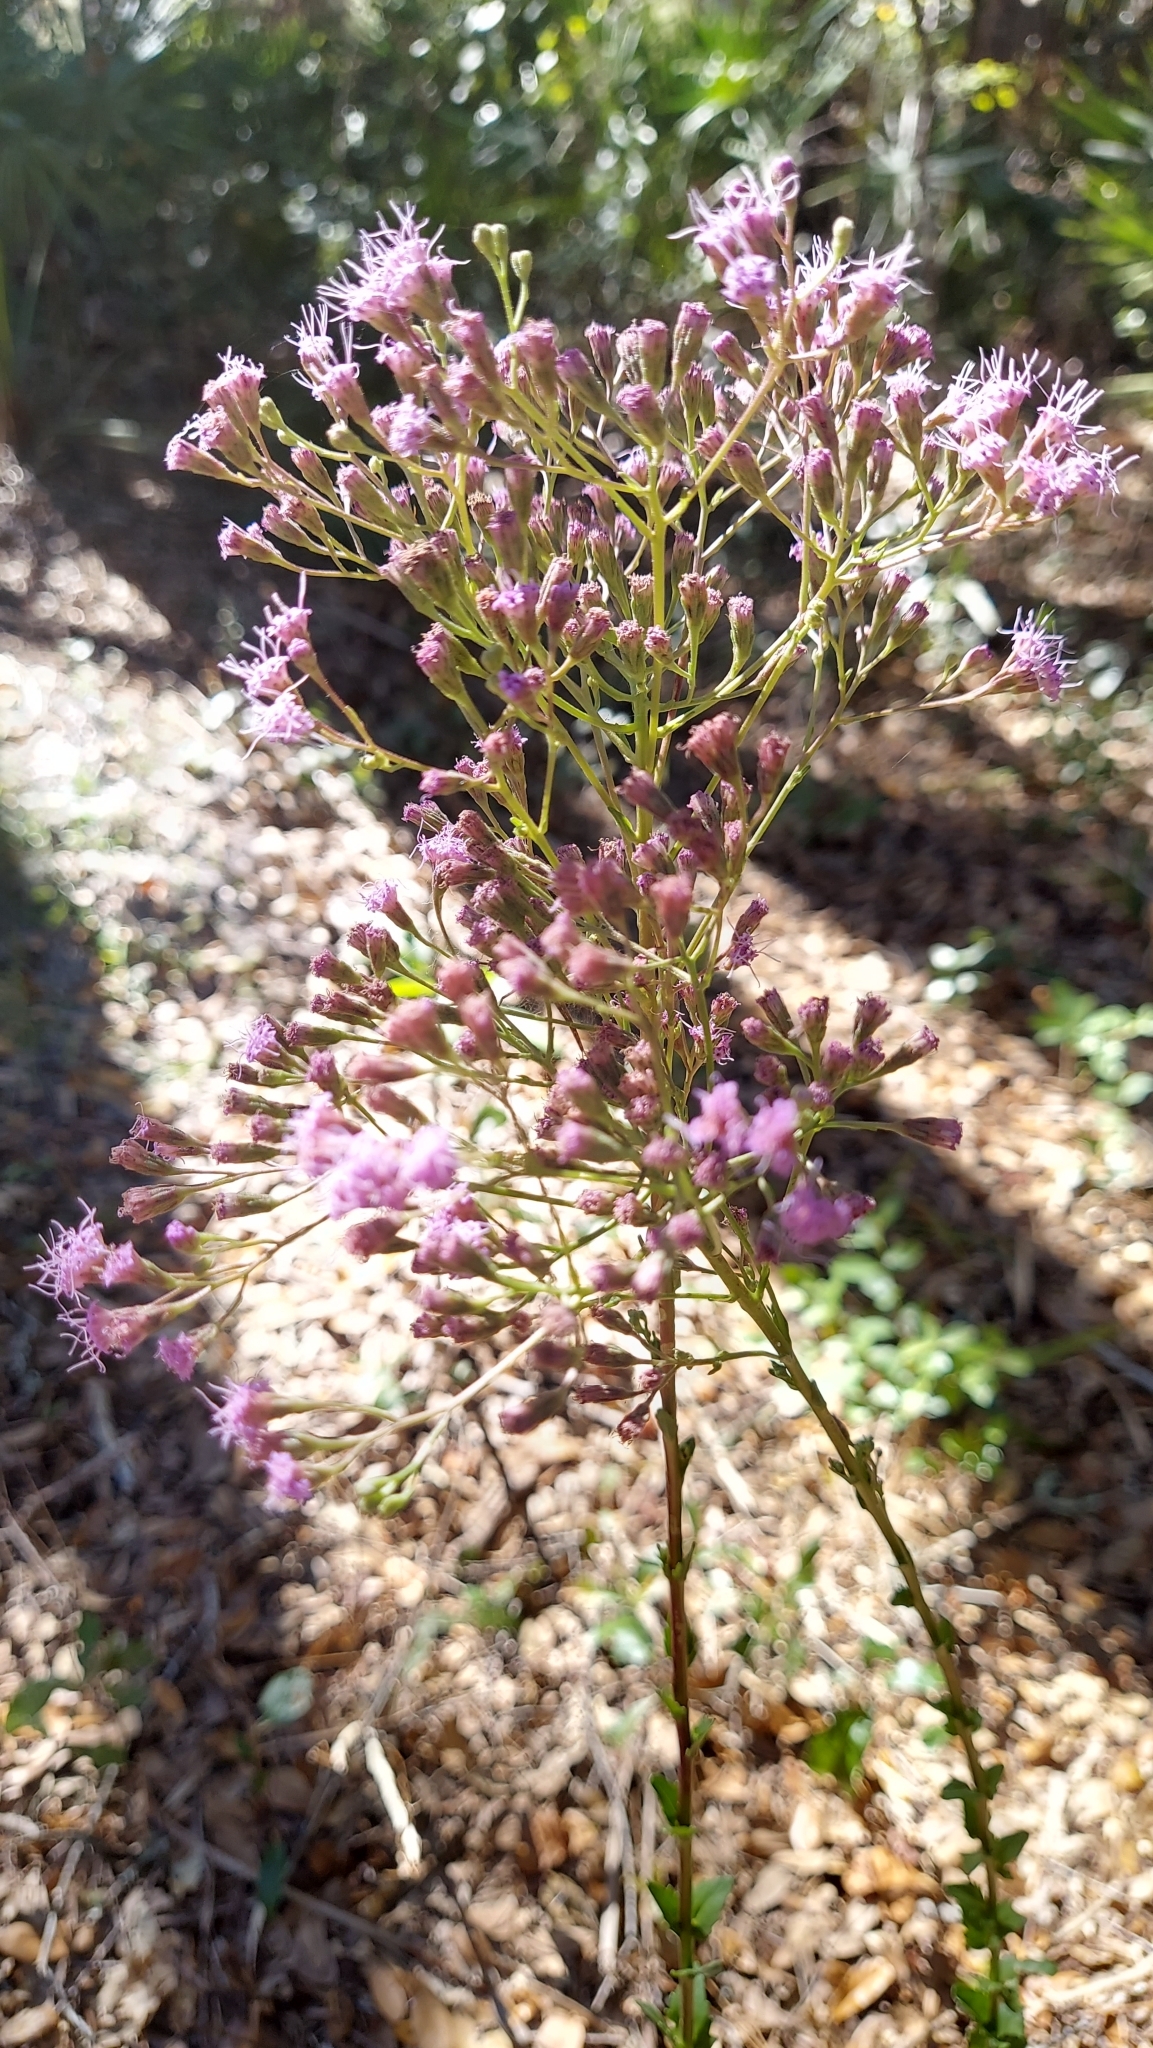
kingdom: Plantae
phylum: Tracheophyta
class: Magnoliopsida
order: Asterales
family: Asteraceae
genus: Carphephorus
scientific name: Carphephorus odoratissimus
